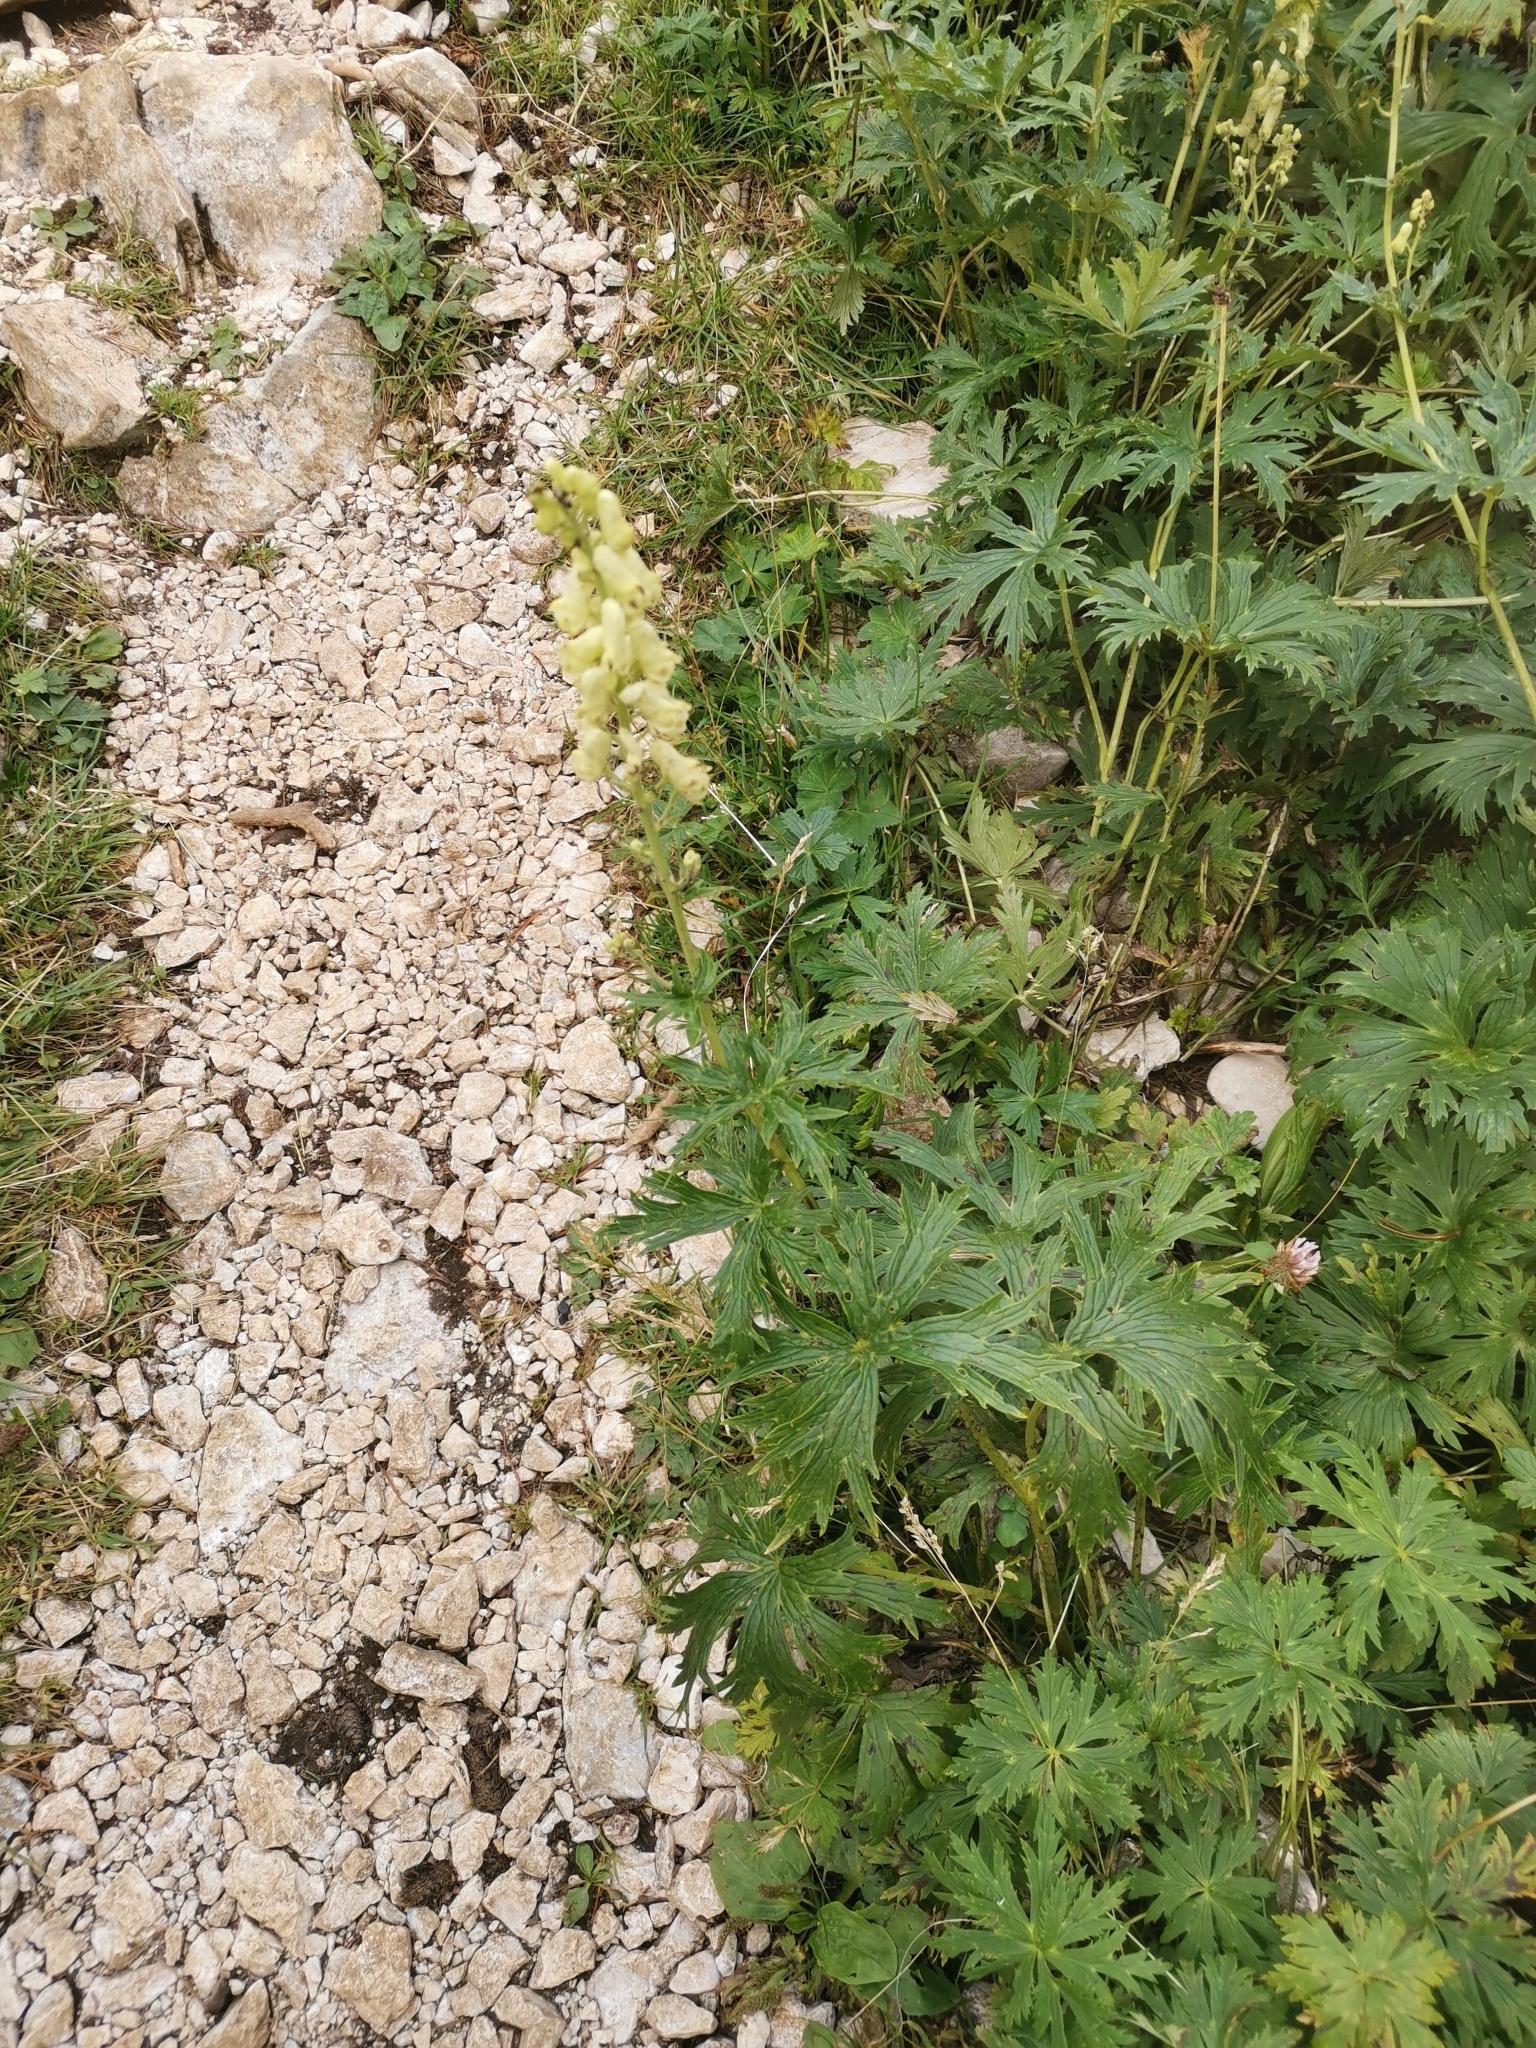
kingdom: Plantae
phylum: Tracheophyta
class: Magnoliopsida
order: Ranunculales
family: Ranunculaceae
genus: Aconitum
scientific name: Aconitum lamarckii
